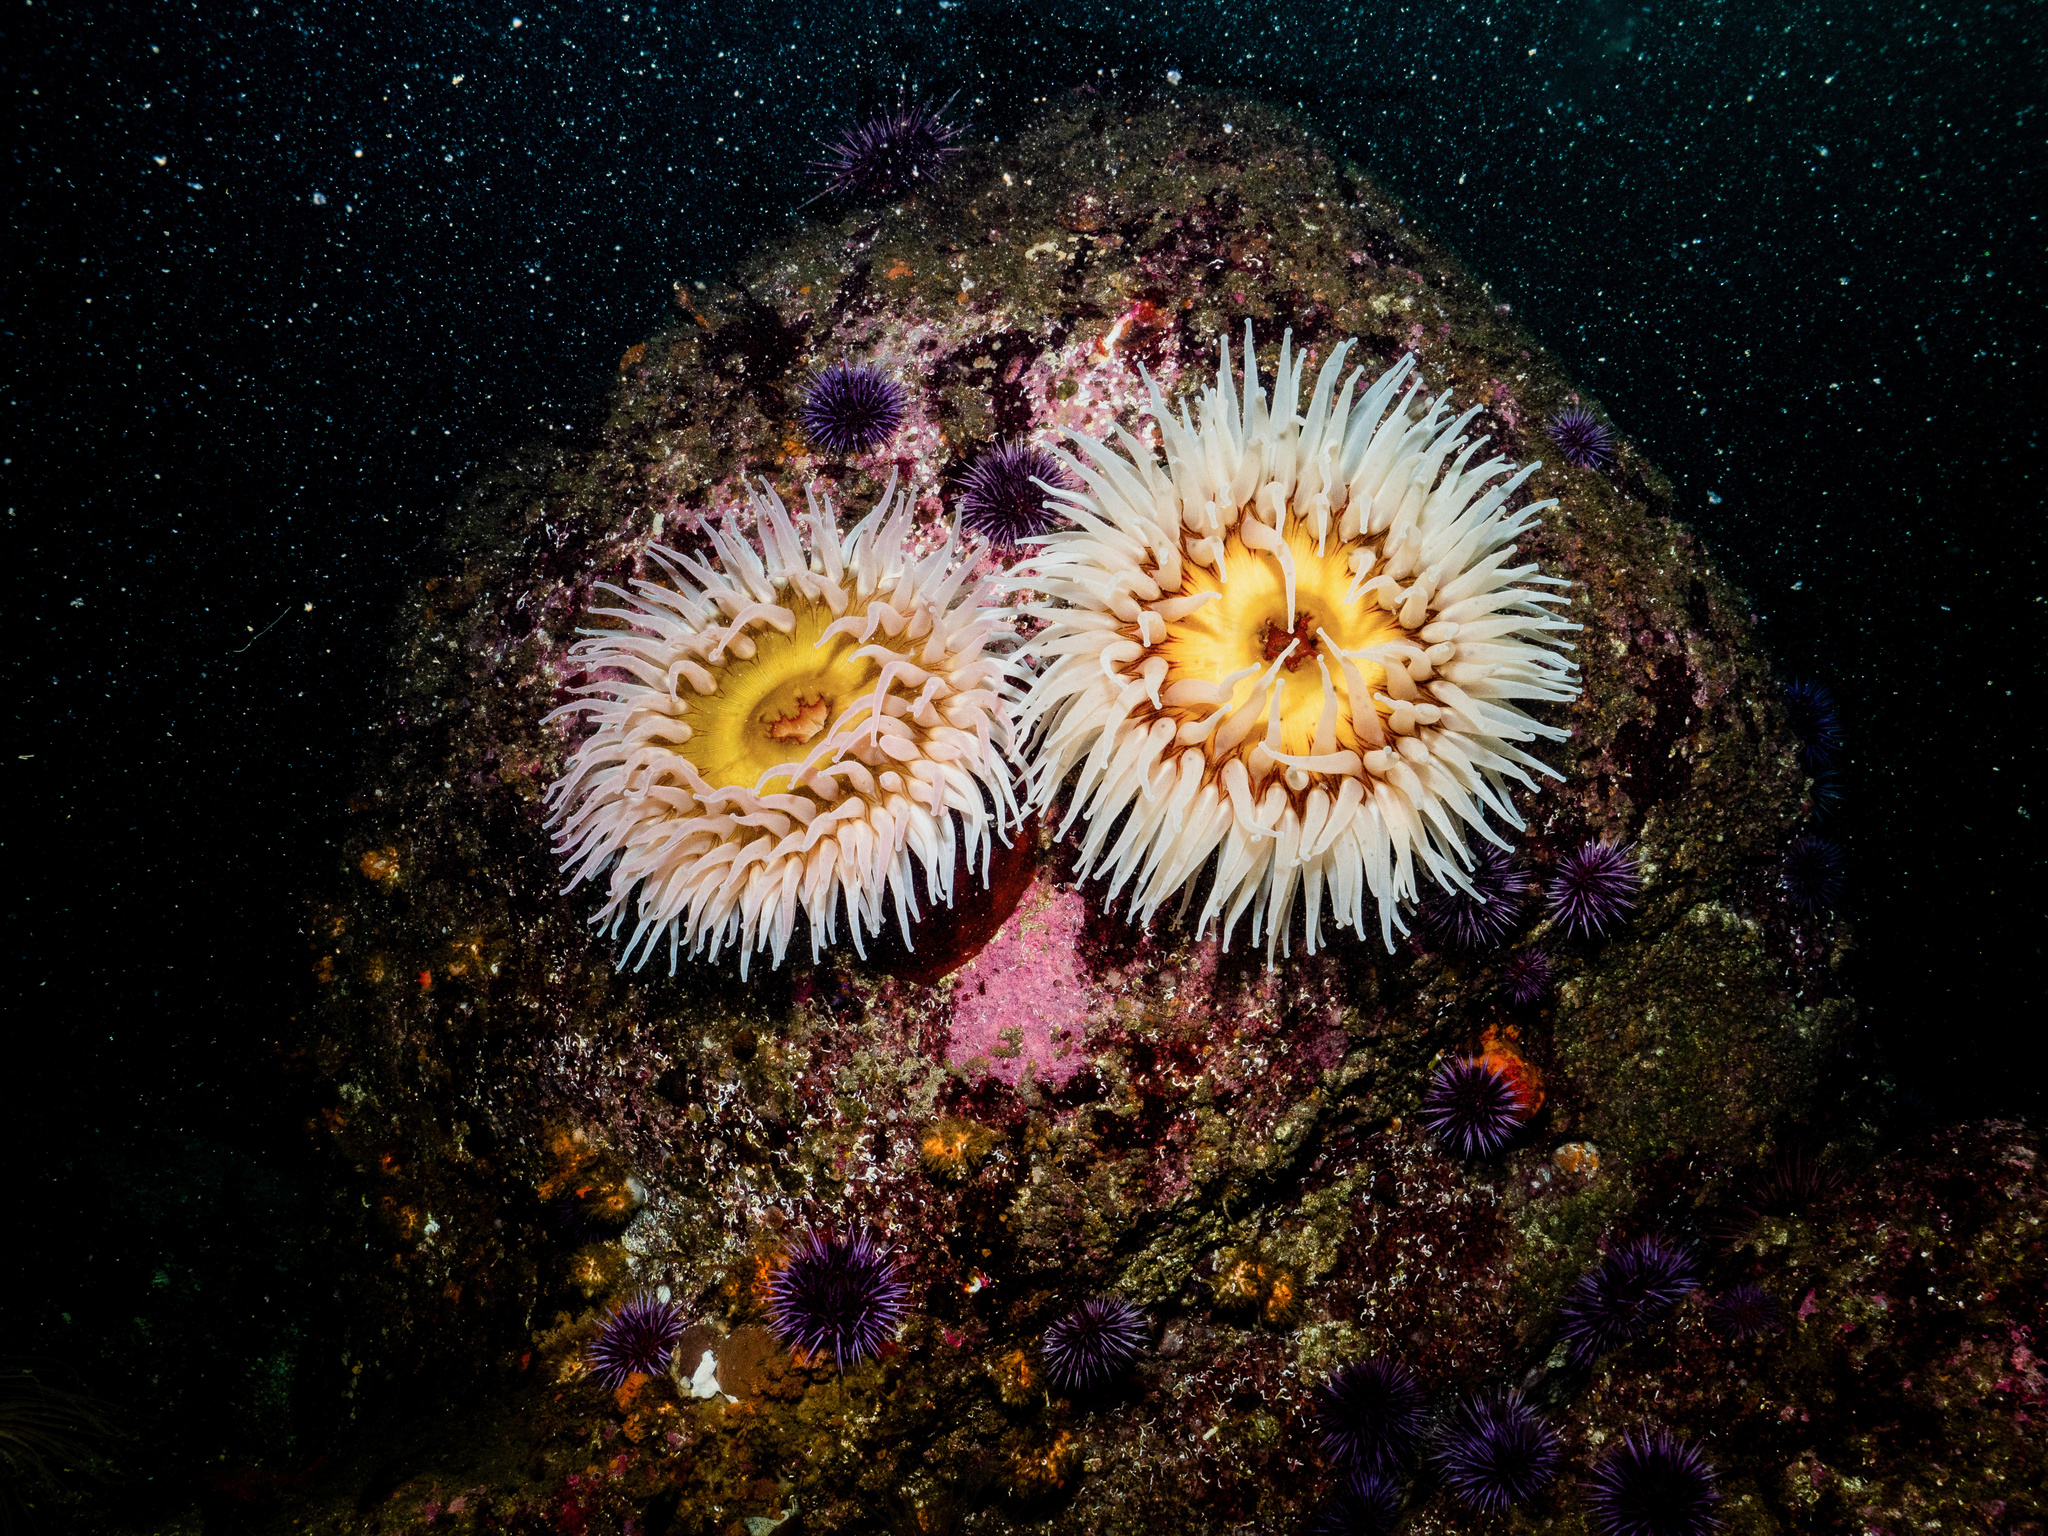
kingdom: Animalia
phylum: Cnidaria
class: Anthozoa
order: Actiniaria
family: Actiniidae
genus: Urticina
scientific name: Urticina piscivora
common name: Velvety red anemone
